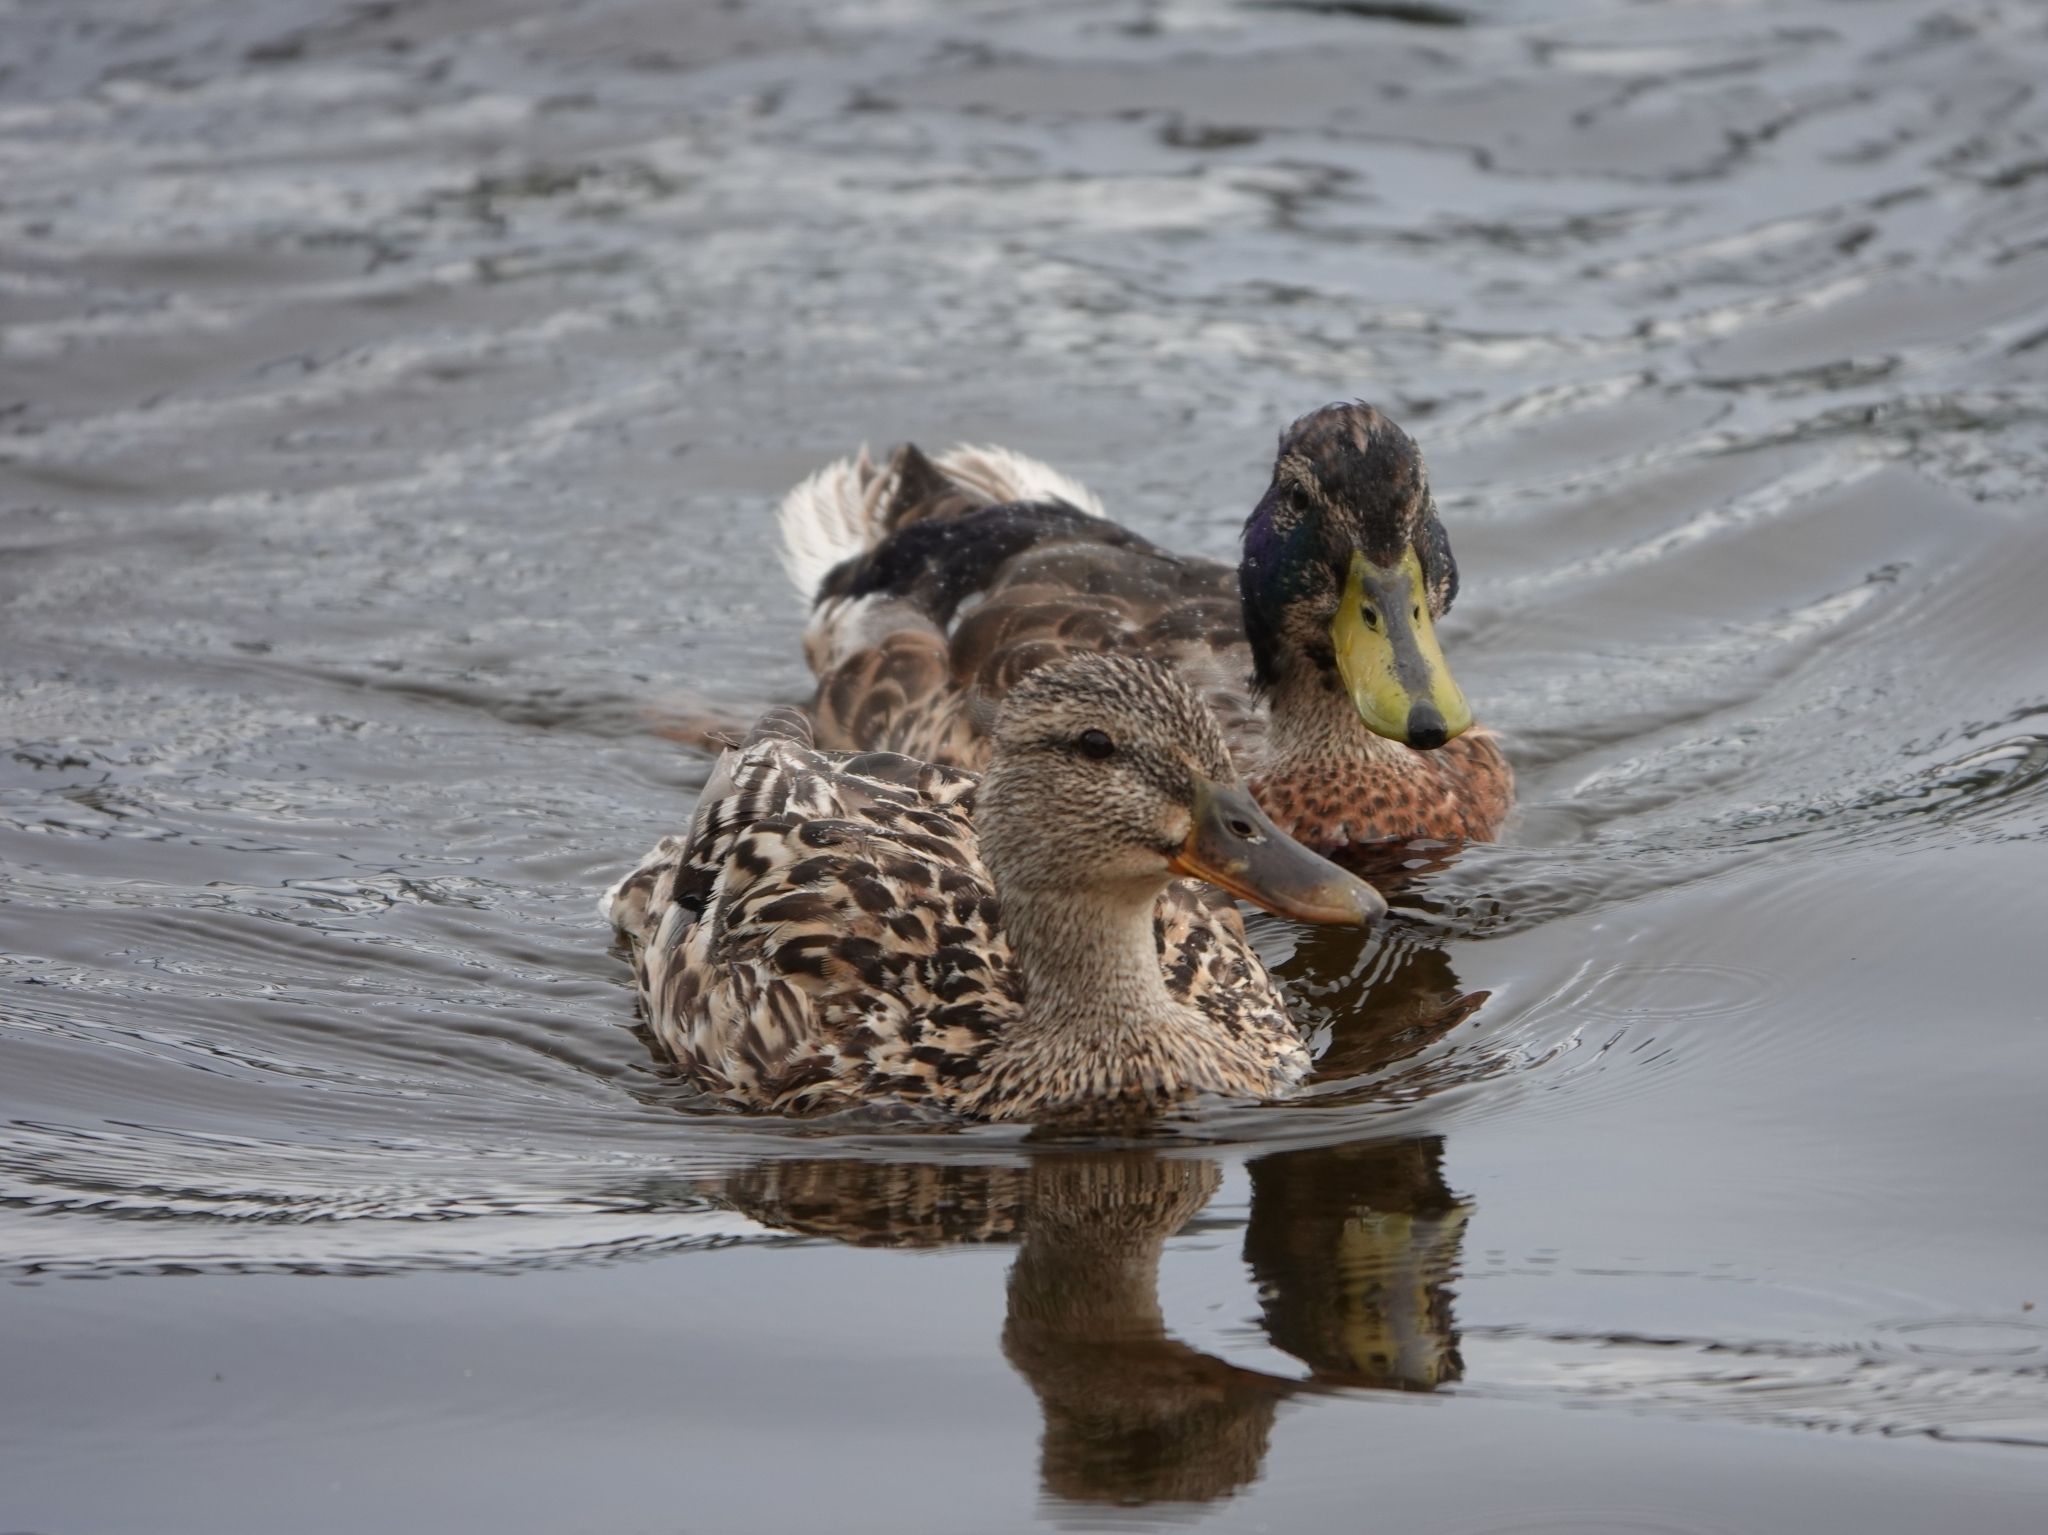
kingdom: Animalia
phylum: Chordata
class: Aves
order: Anseriformes
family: Anatidae
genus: Anas
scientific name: Anas platyrhynchos
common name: Mallard
